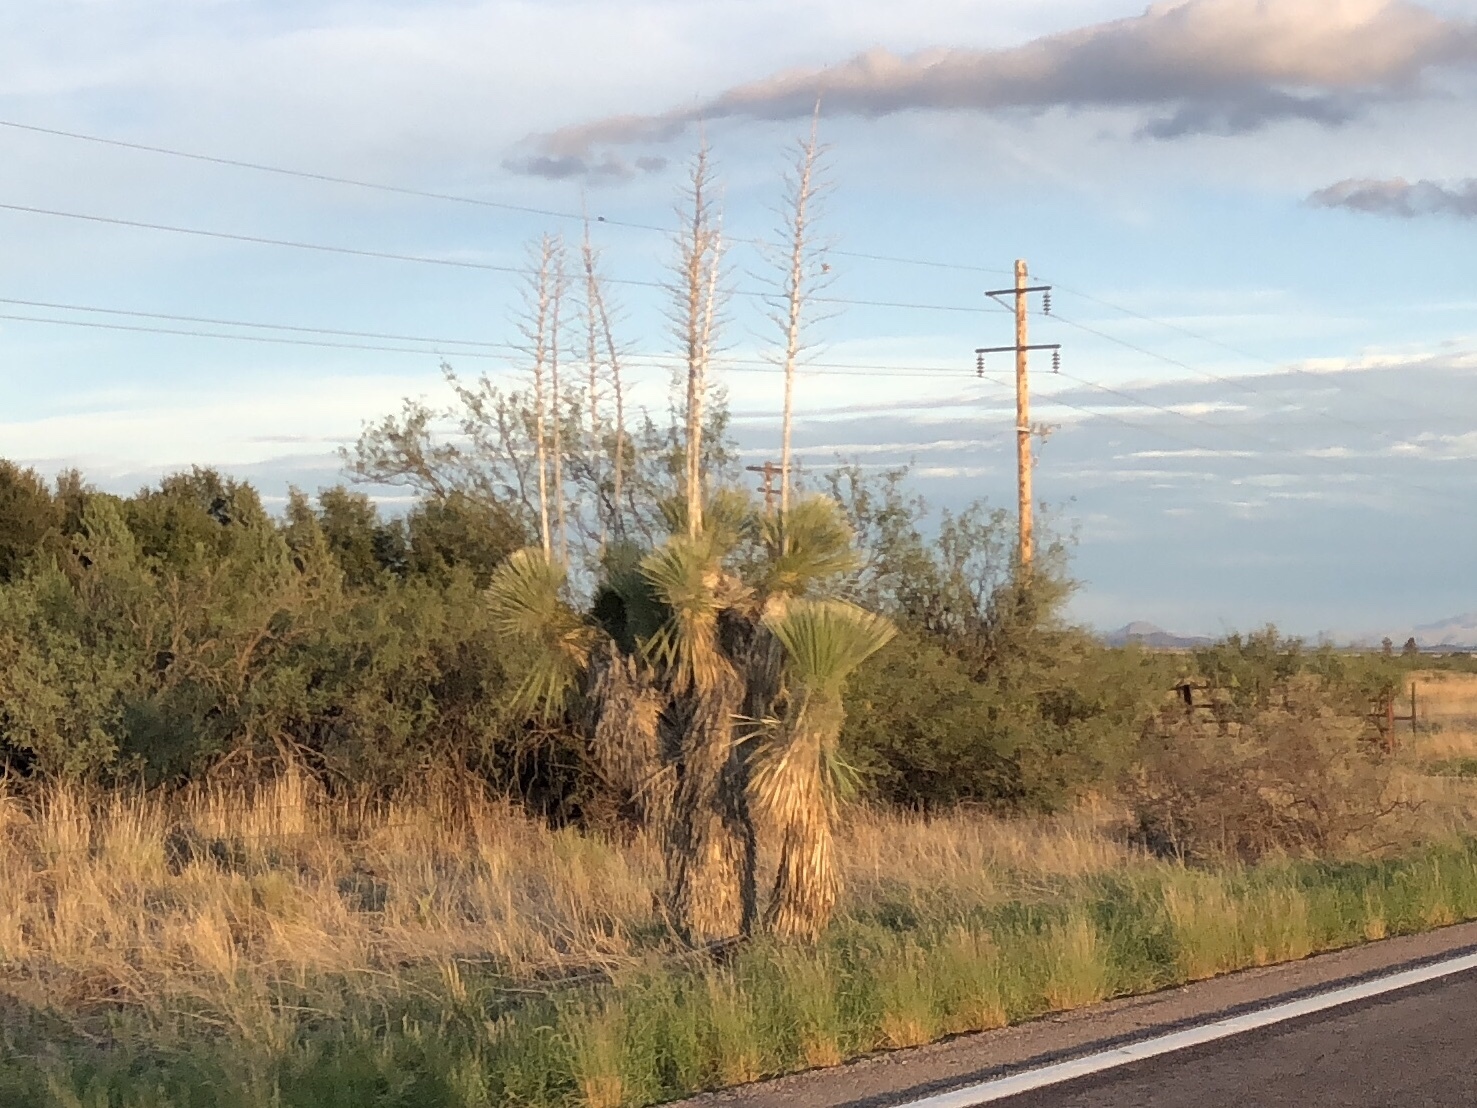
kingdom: Plantae
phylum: Tracheophyta
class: Liliopsida
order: Asparagales
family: Asparagaceae
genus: Yucca
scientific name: Yucca elata
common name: Palmella
